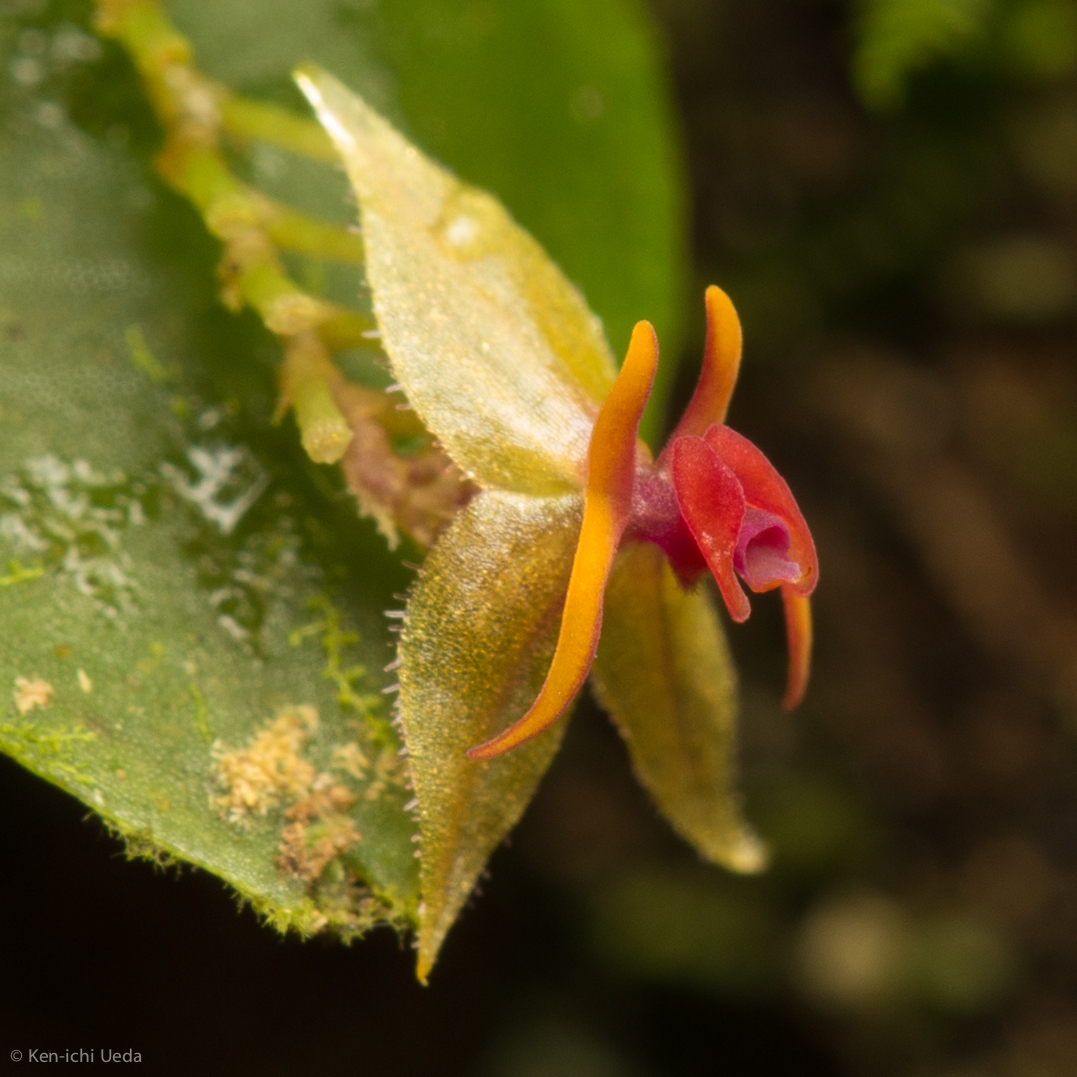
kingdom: Plantae
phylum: Tracheophyta
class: Liliopsida
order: Asparagales
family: Orchidaceae
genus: Lepanthes
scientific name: Lepanthes falx-bellica
